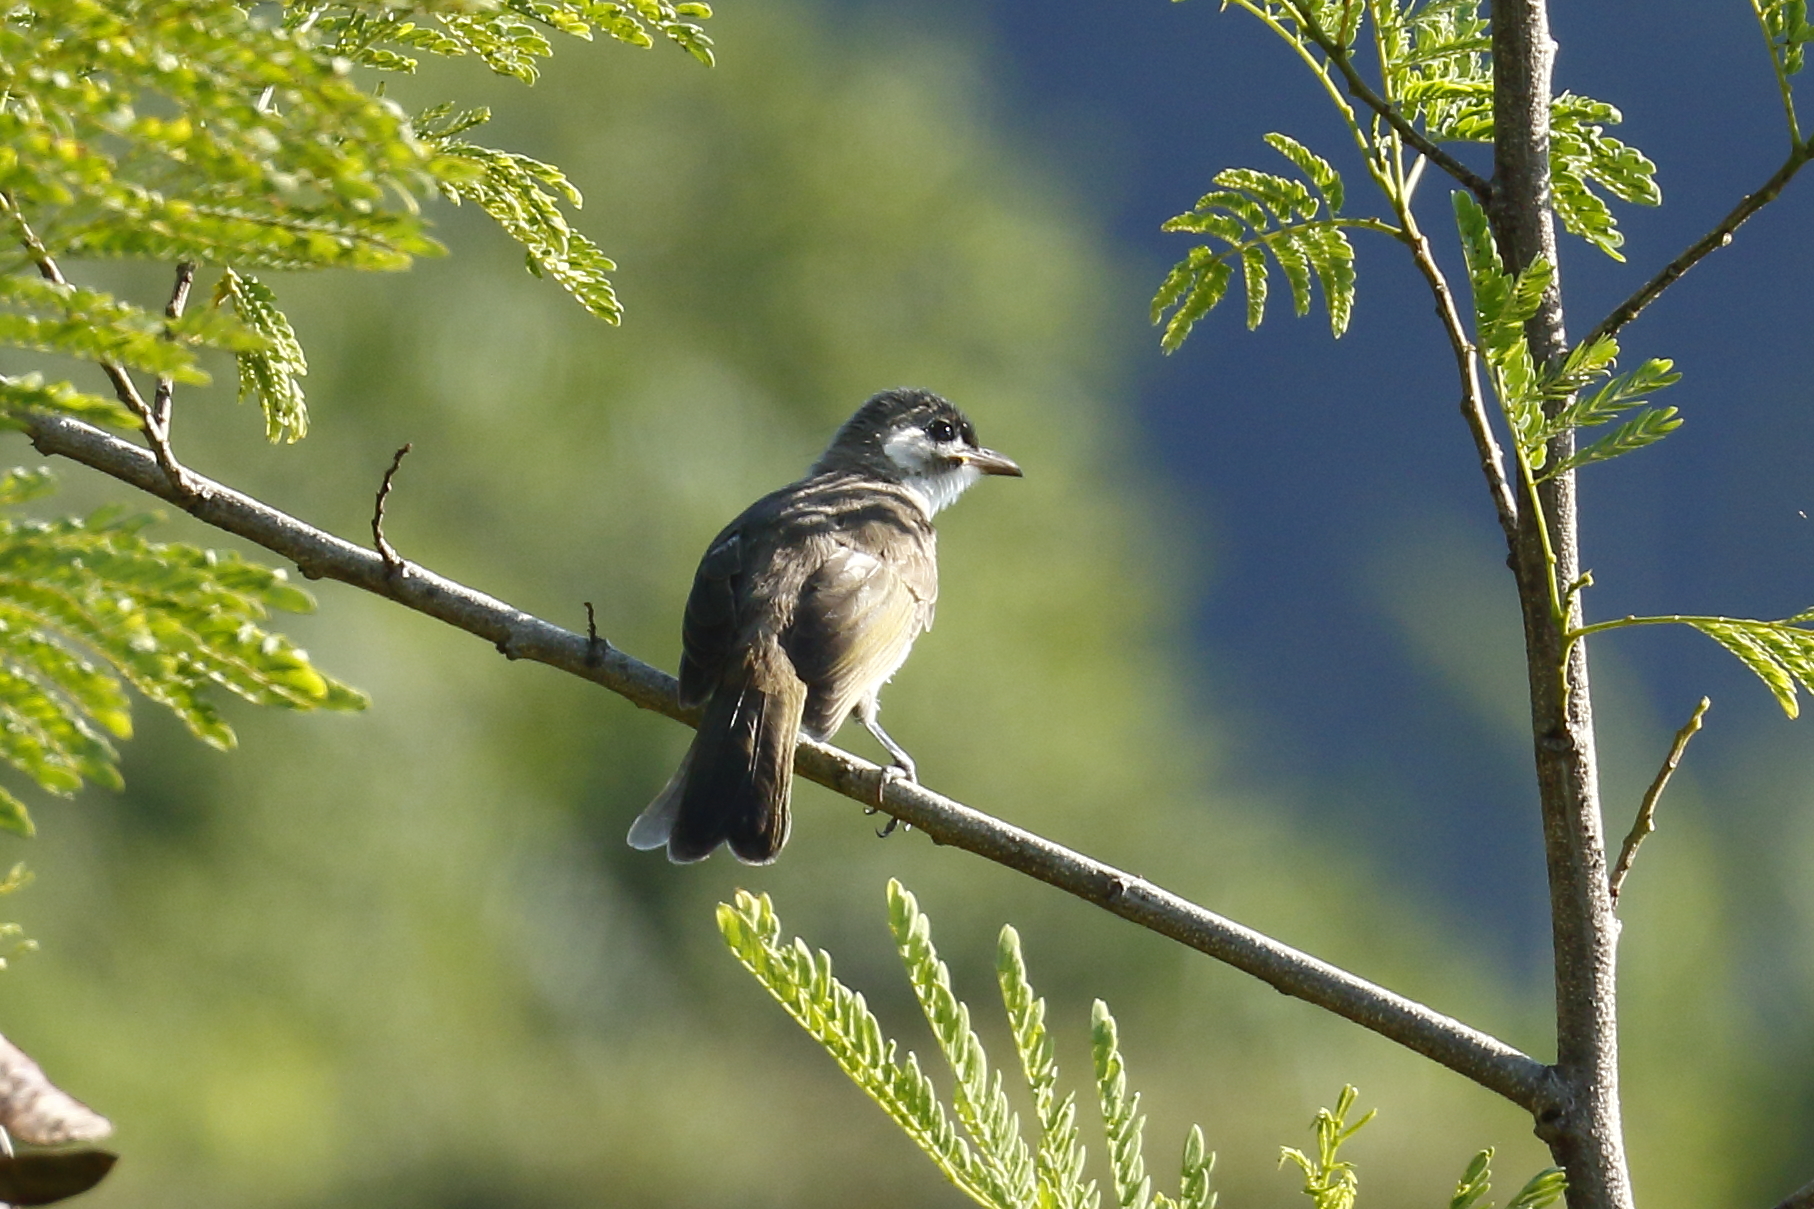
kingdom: Animalia
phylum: Chordata
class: Aves
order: Passeriformes
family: Pycnonotidae
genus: Pycnonotus
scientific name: Pycnonotus taivanus
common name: Styan's bulbul
